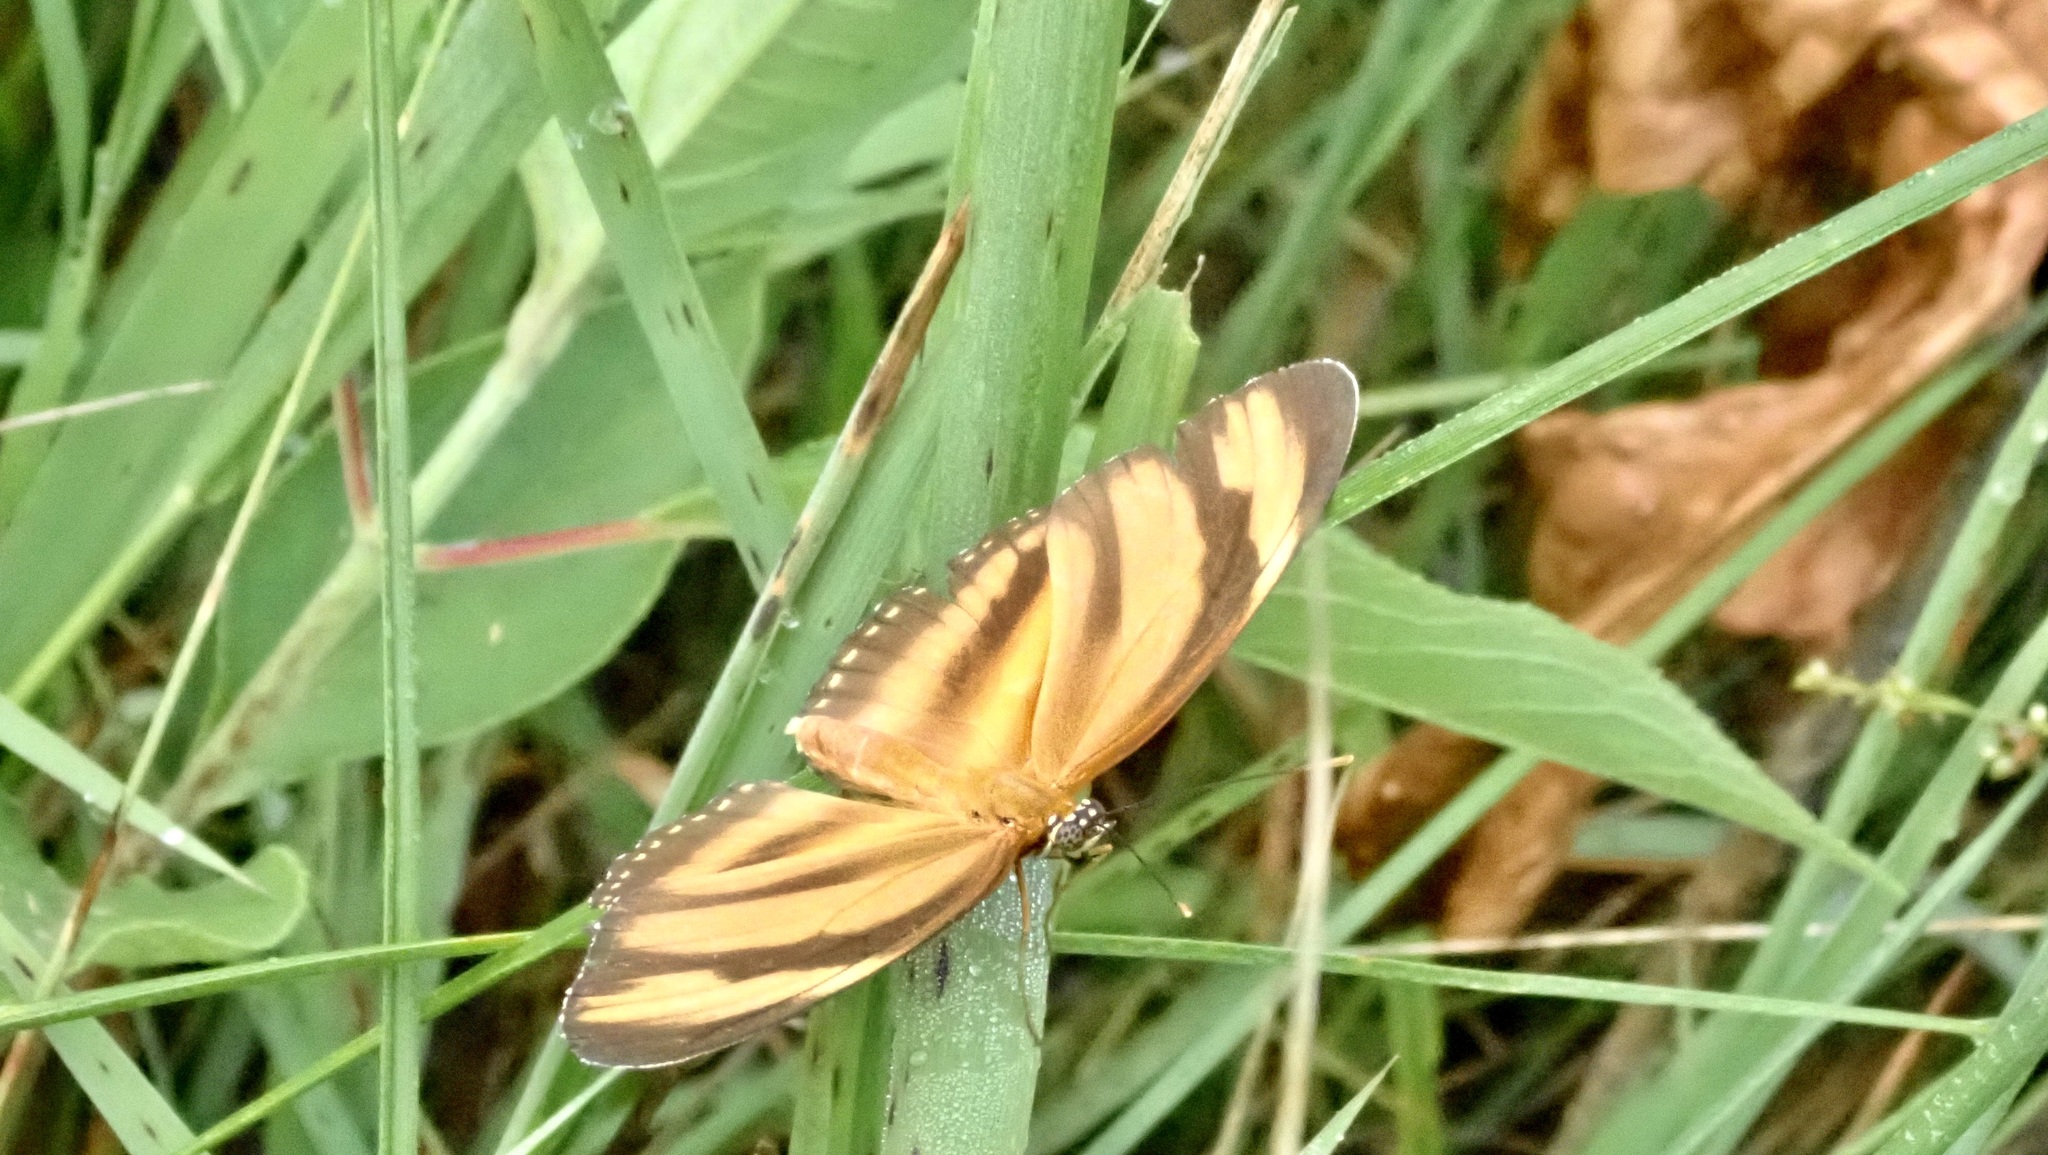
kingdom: Animalia
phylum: Arthropoda
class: Insecta
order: Lepidoptera
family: Nymphalidae
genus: Dryadula
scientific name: Dryadula phaetusa
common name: Banded orange heliconian
